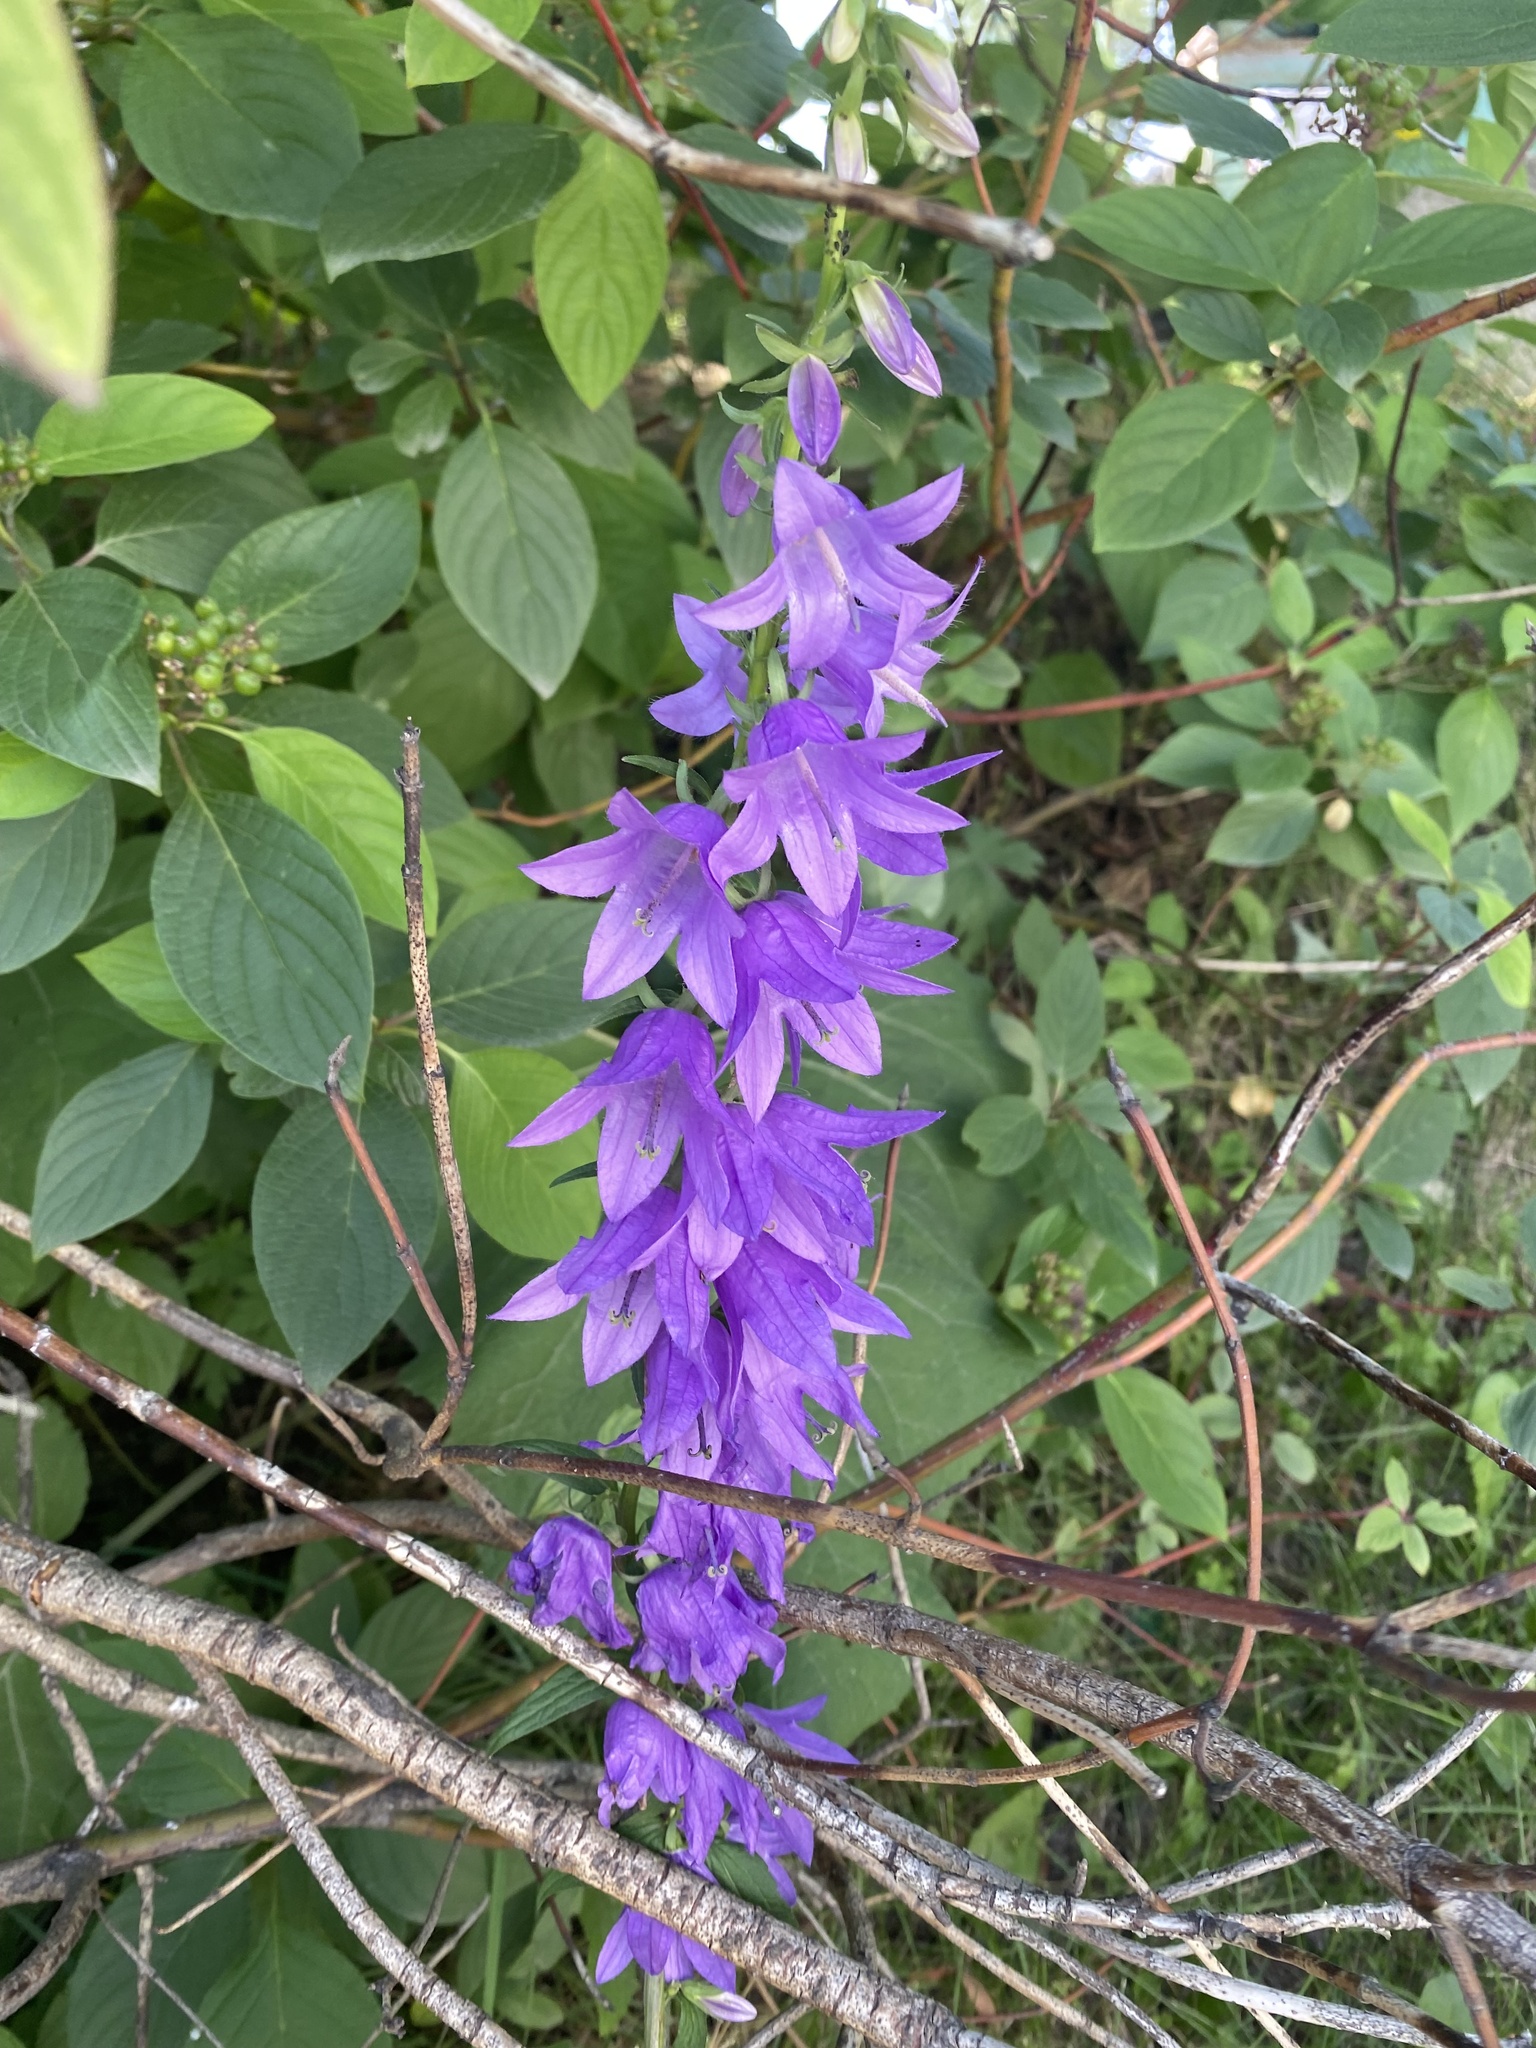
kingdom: Plantae
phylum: Tracheophyta
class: Magnoliopsida
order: Asterales
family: Campanulaceae
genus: Campanula
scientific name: Campanula rapunculoides
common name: Creeping bellflower
